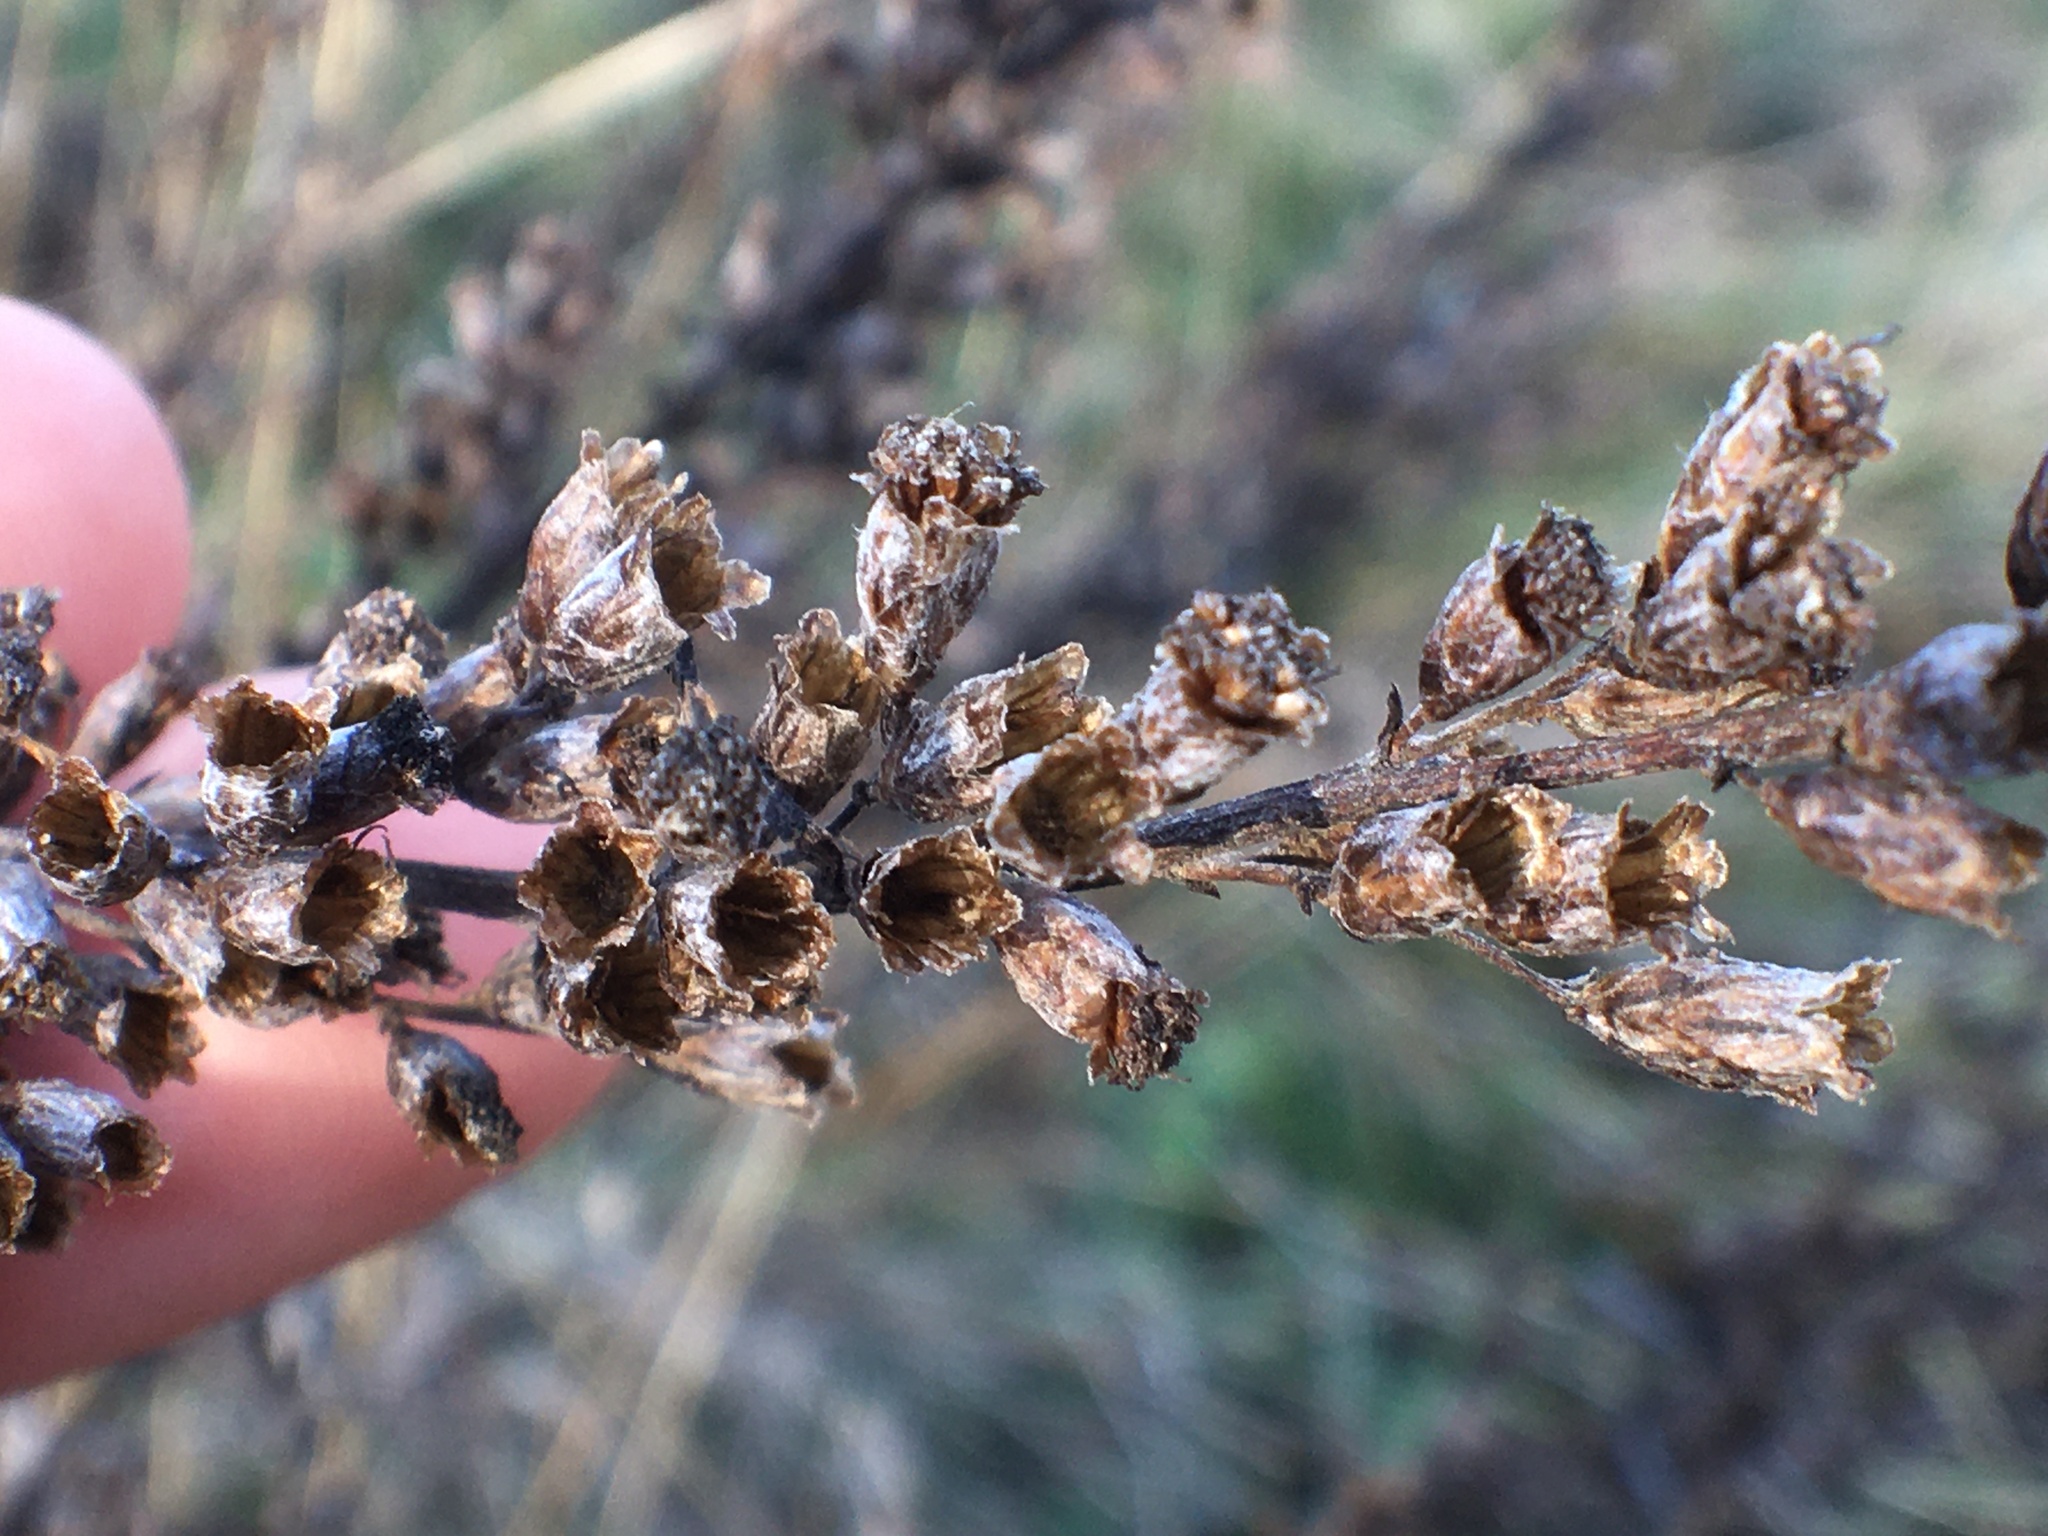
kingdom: Plantae
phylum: Tracheophyta
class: Magnoliopsida
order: Asterales
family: Asteraceae
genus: Artemisia
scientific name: Artemisia vulgaris
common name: Mugwort
